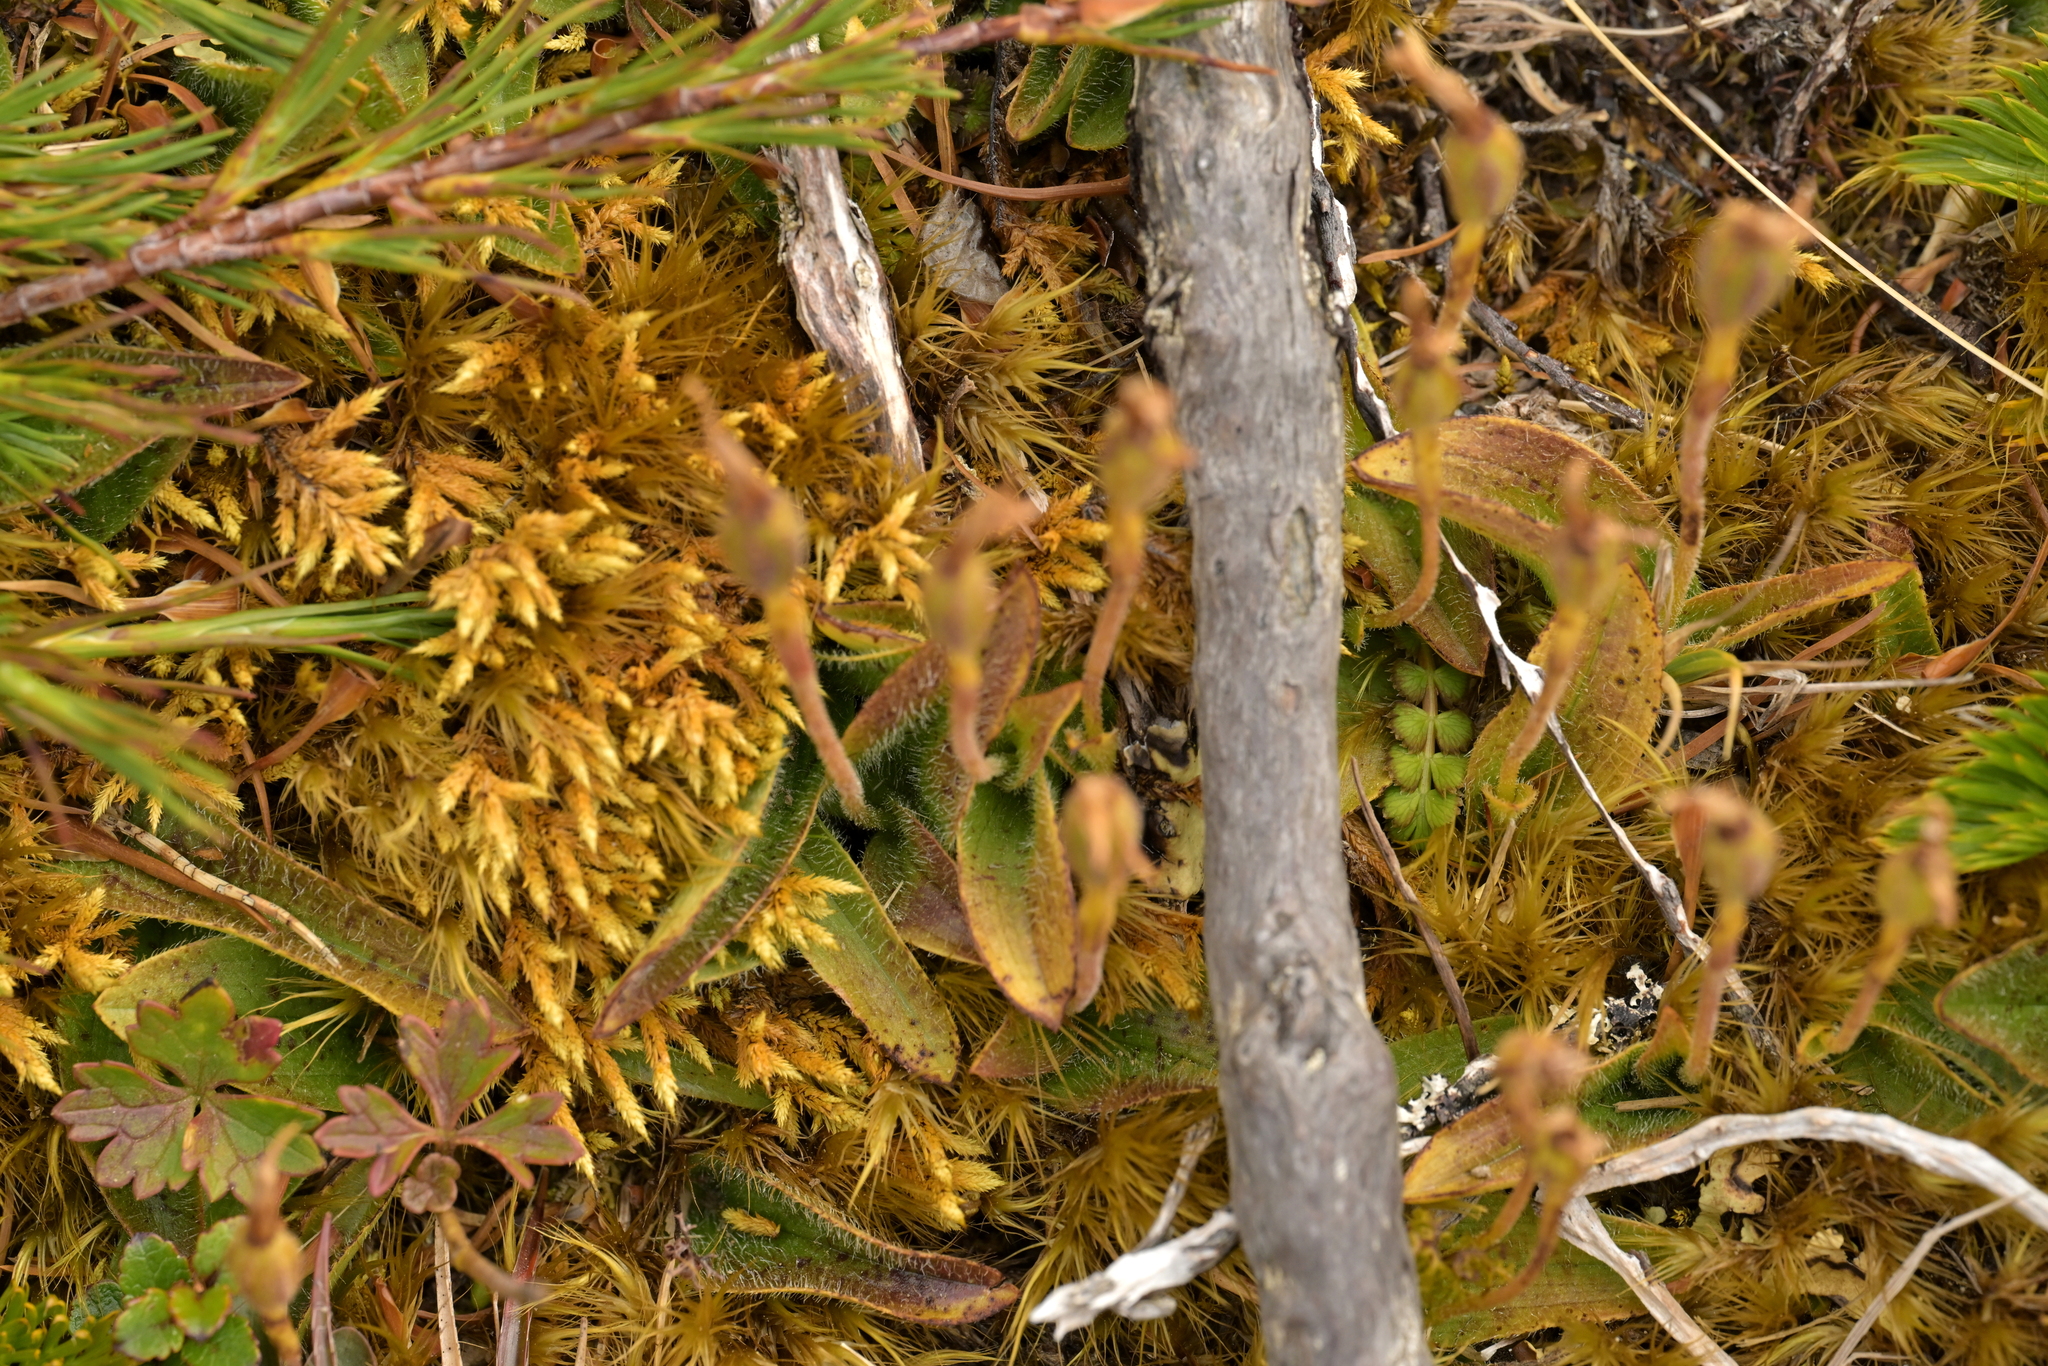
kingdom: Plantae
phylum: Tracheophyta
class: Liliopsida
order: Asparagales
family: Orchidaceae
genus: Aporostylis
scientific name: Aporostylis bifolia
